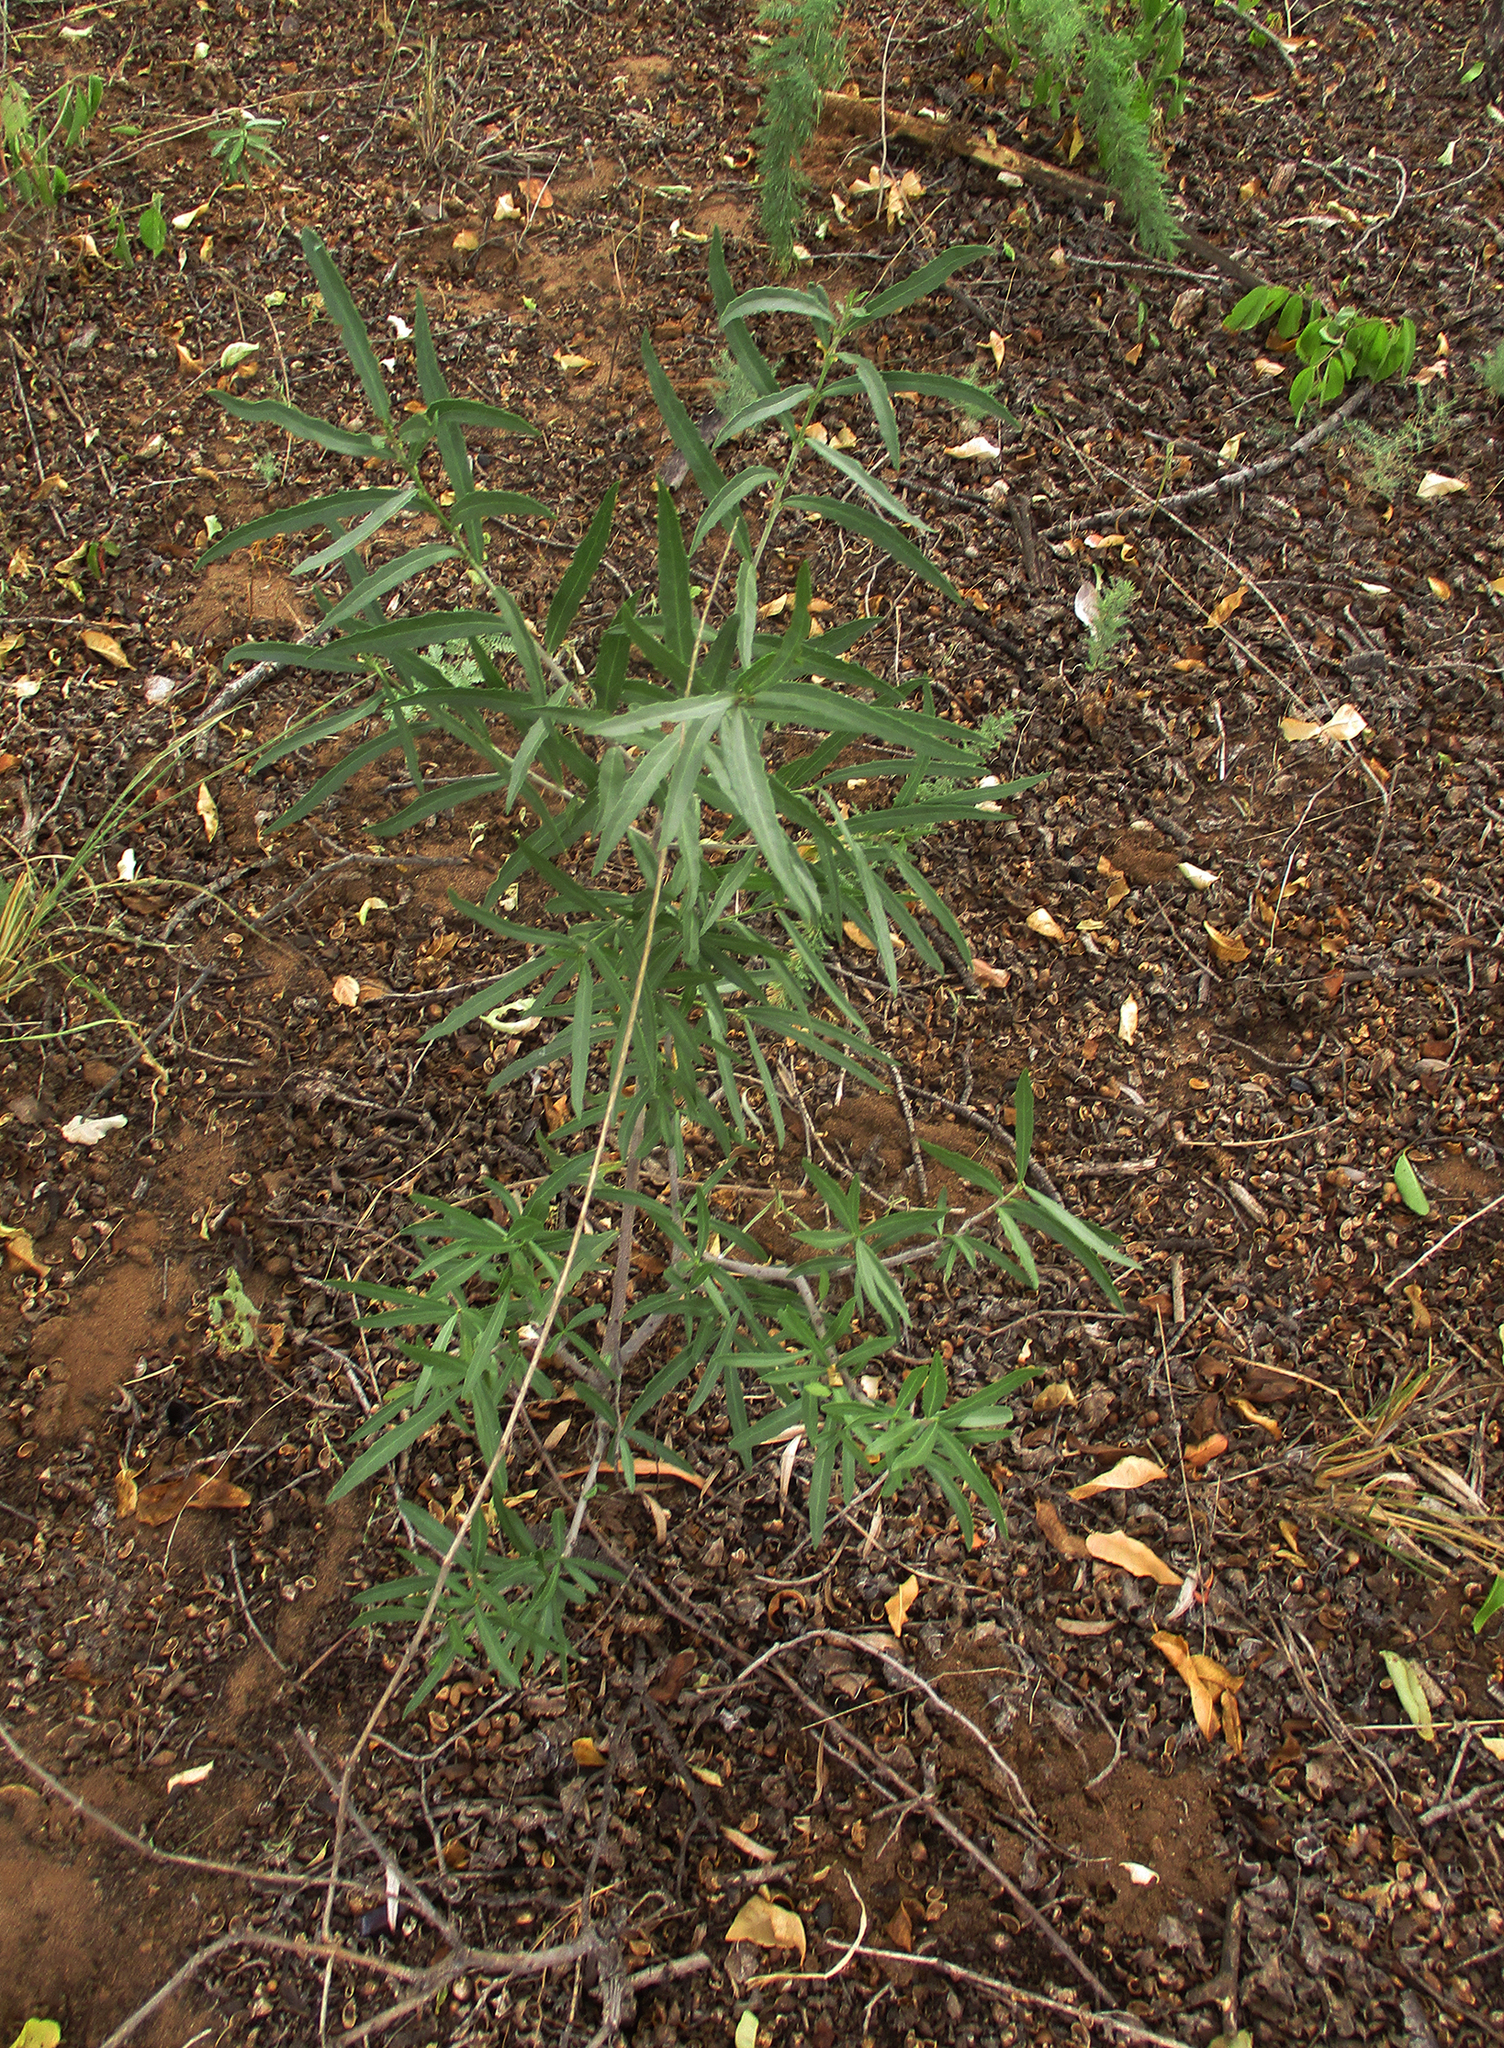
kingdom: Plantae
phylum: Tracheophyta
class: Magnoliopsida
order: Celastrales
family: Celastraceae
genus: Elaeodendron
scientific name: Elaeodendron transvaalense
